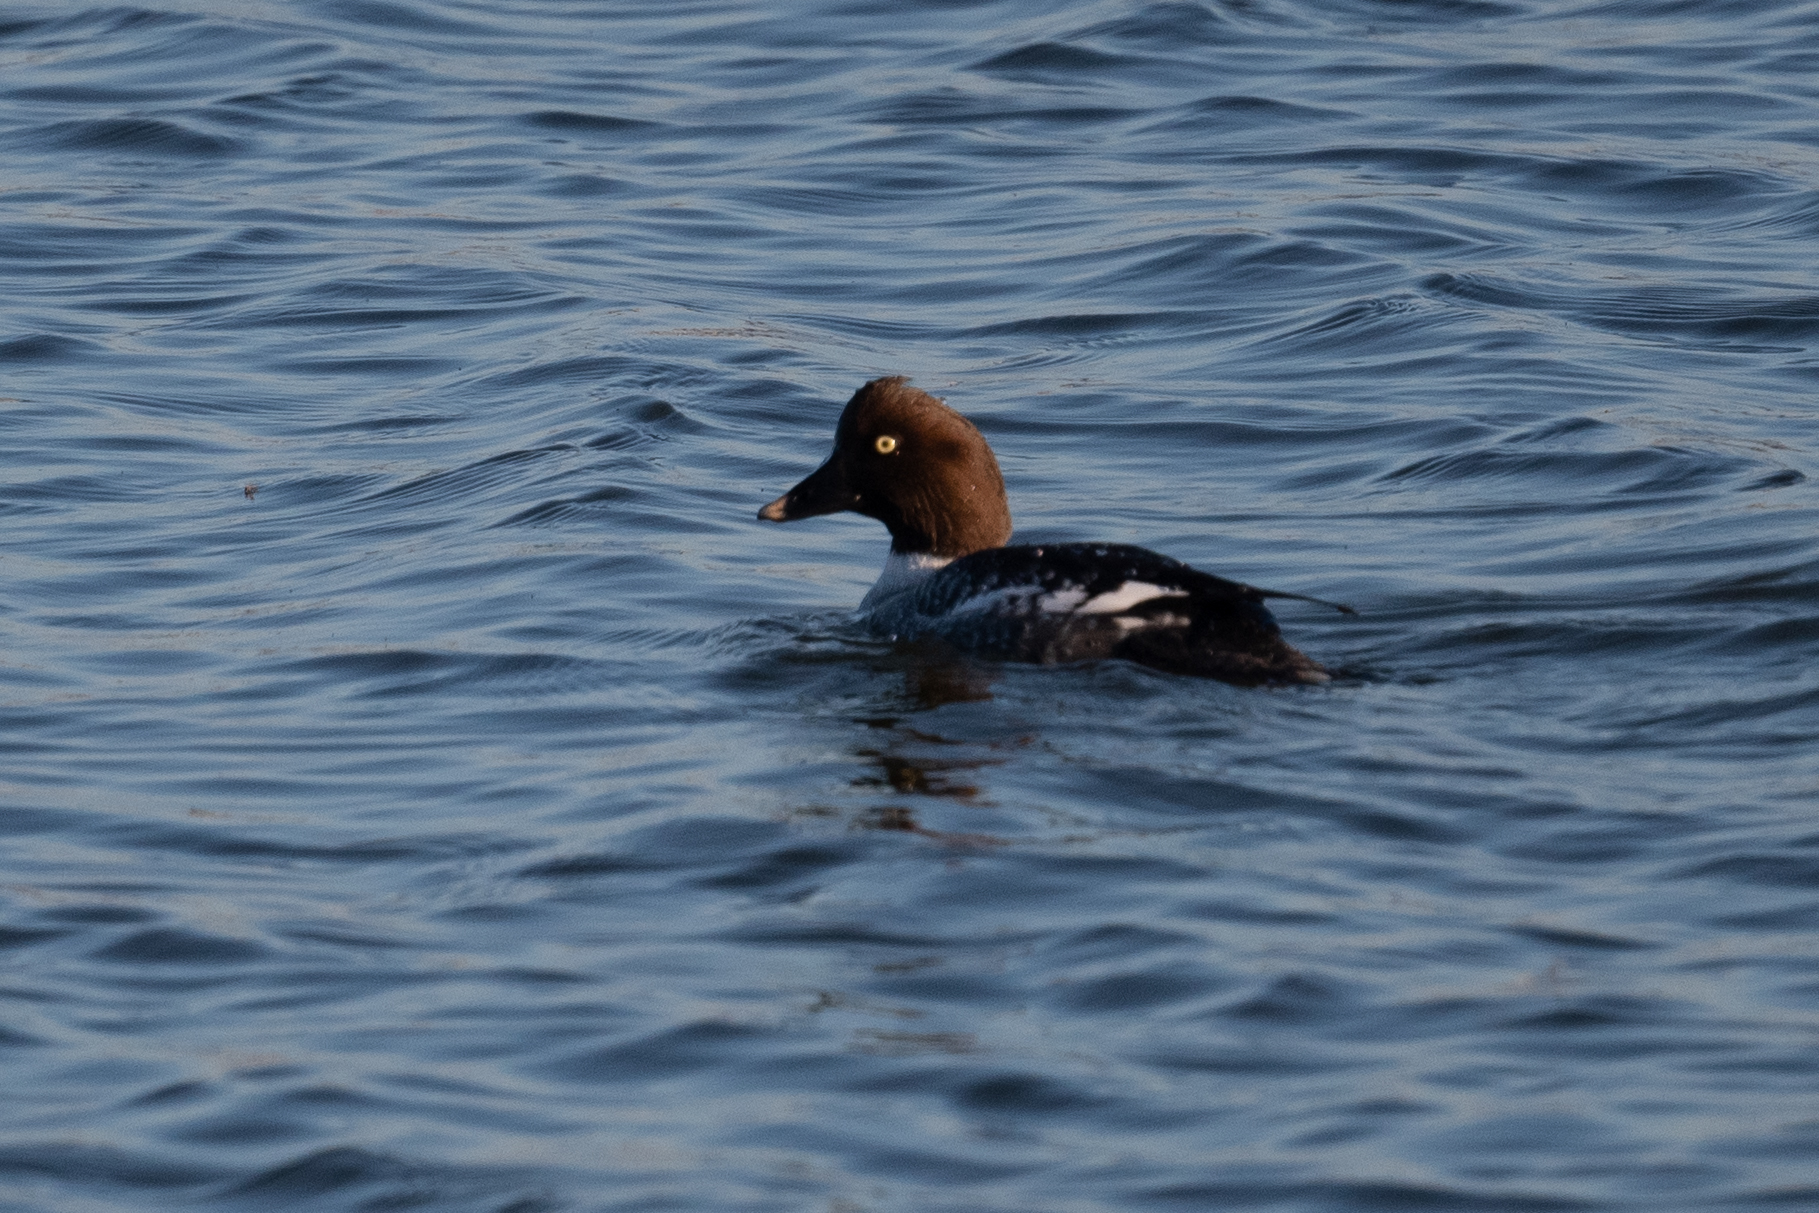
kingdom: Animalia
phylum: Chordata
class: Aves
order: Anseriformes
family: Anatidae
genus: Bucephala
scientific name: Bucephala clangula
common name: Common goldeneye
